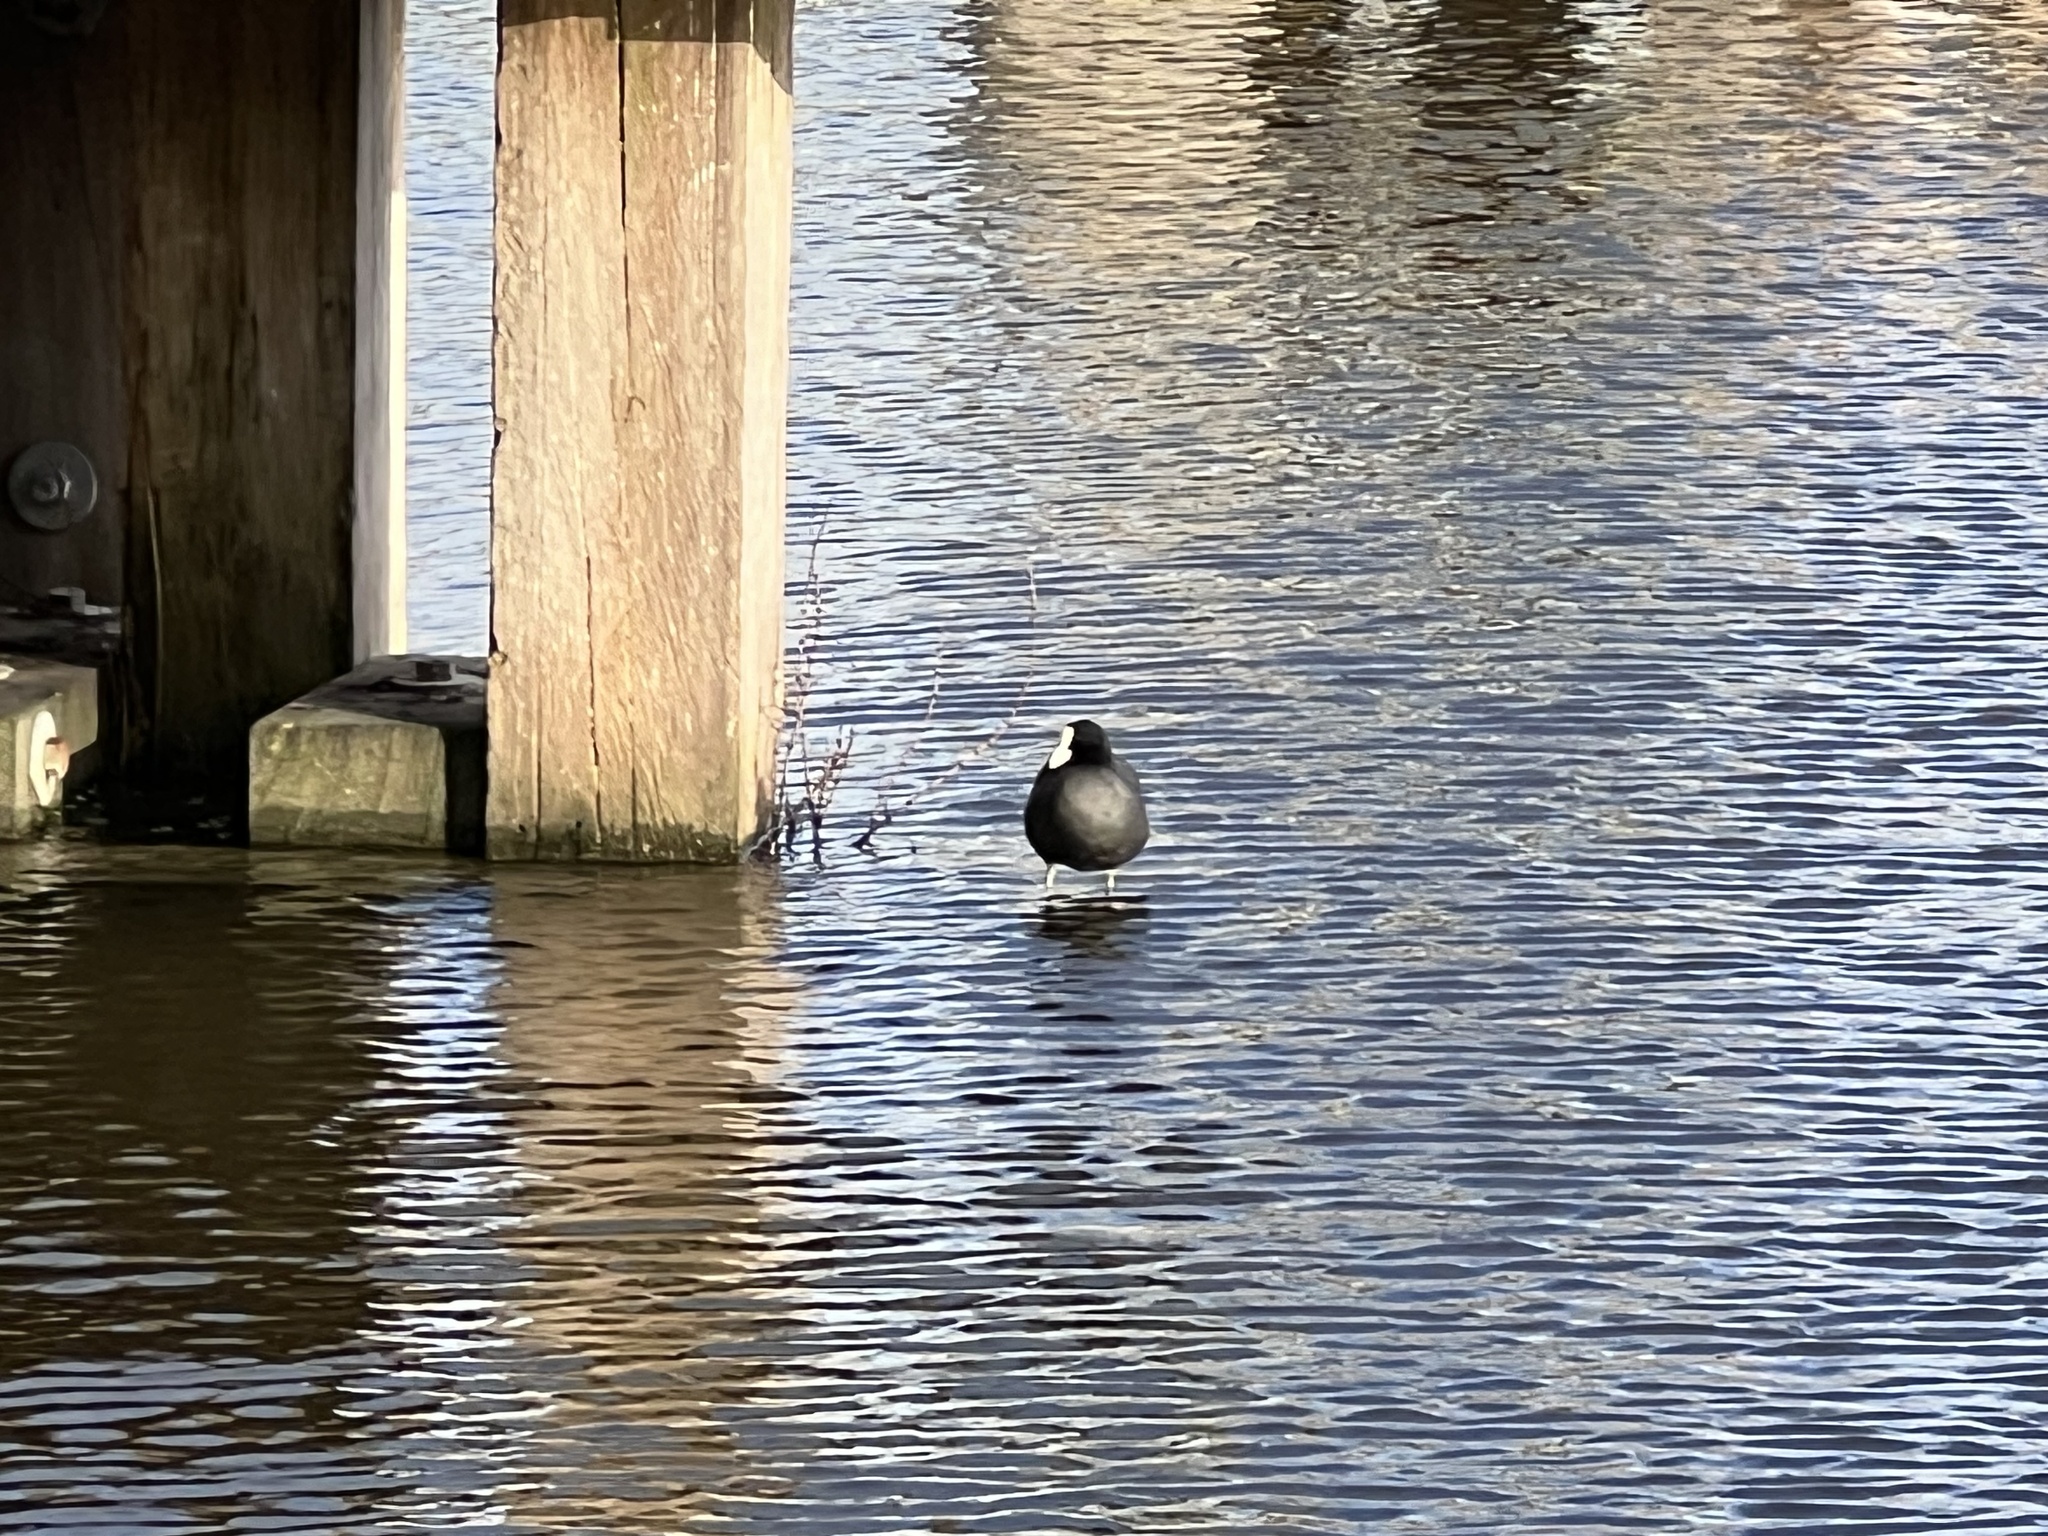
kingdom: Animalia
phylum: Chordata
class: Aves
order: Gruiformes
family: Rallidae
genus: Fulica
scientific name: Fulica atra
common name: Eurasian coot
